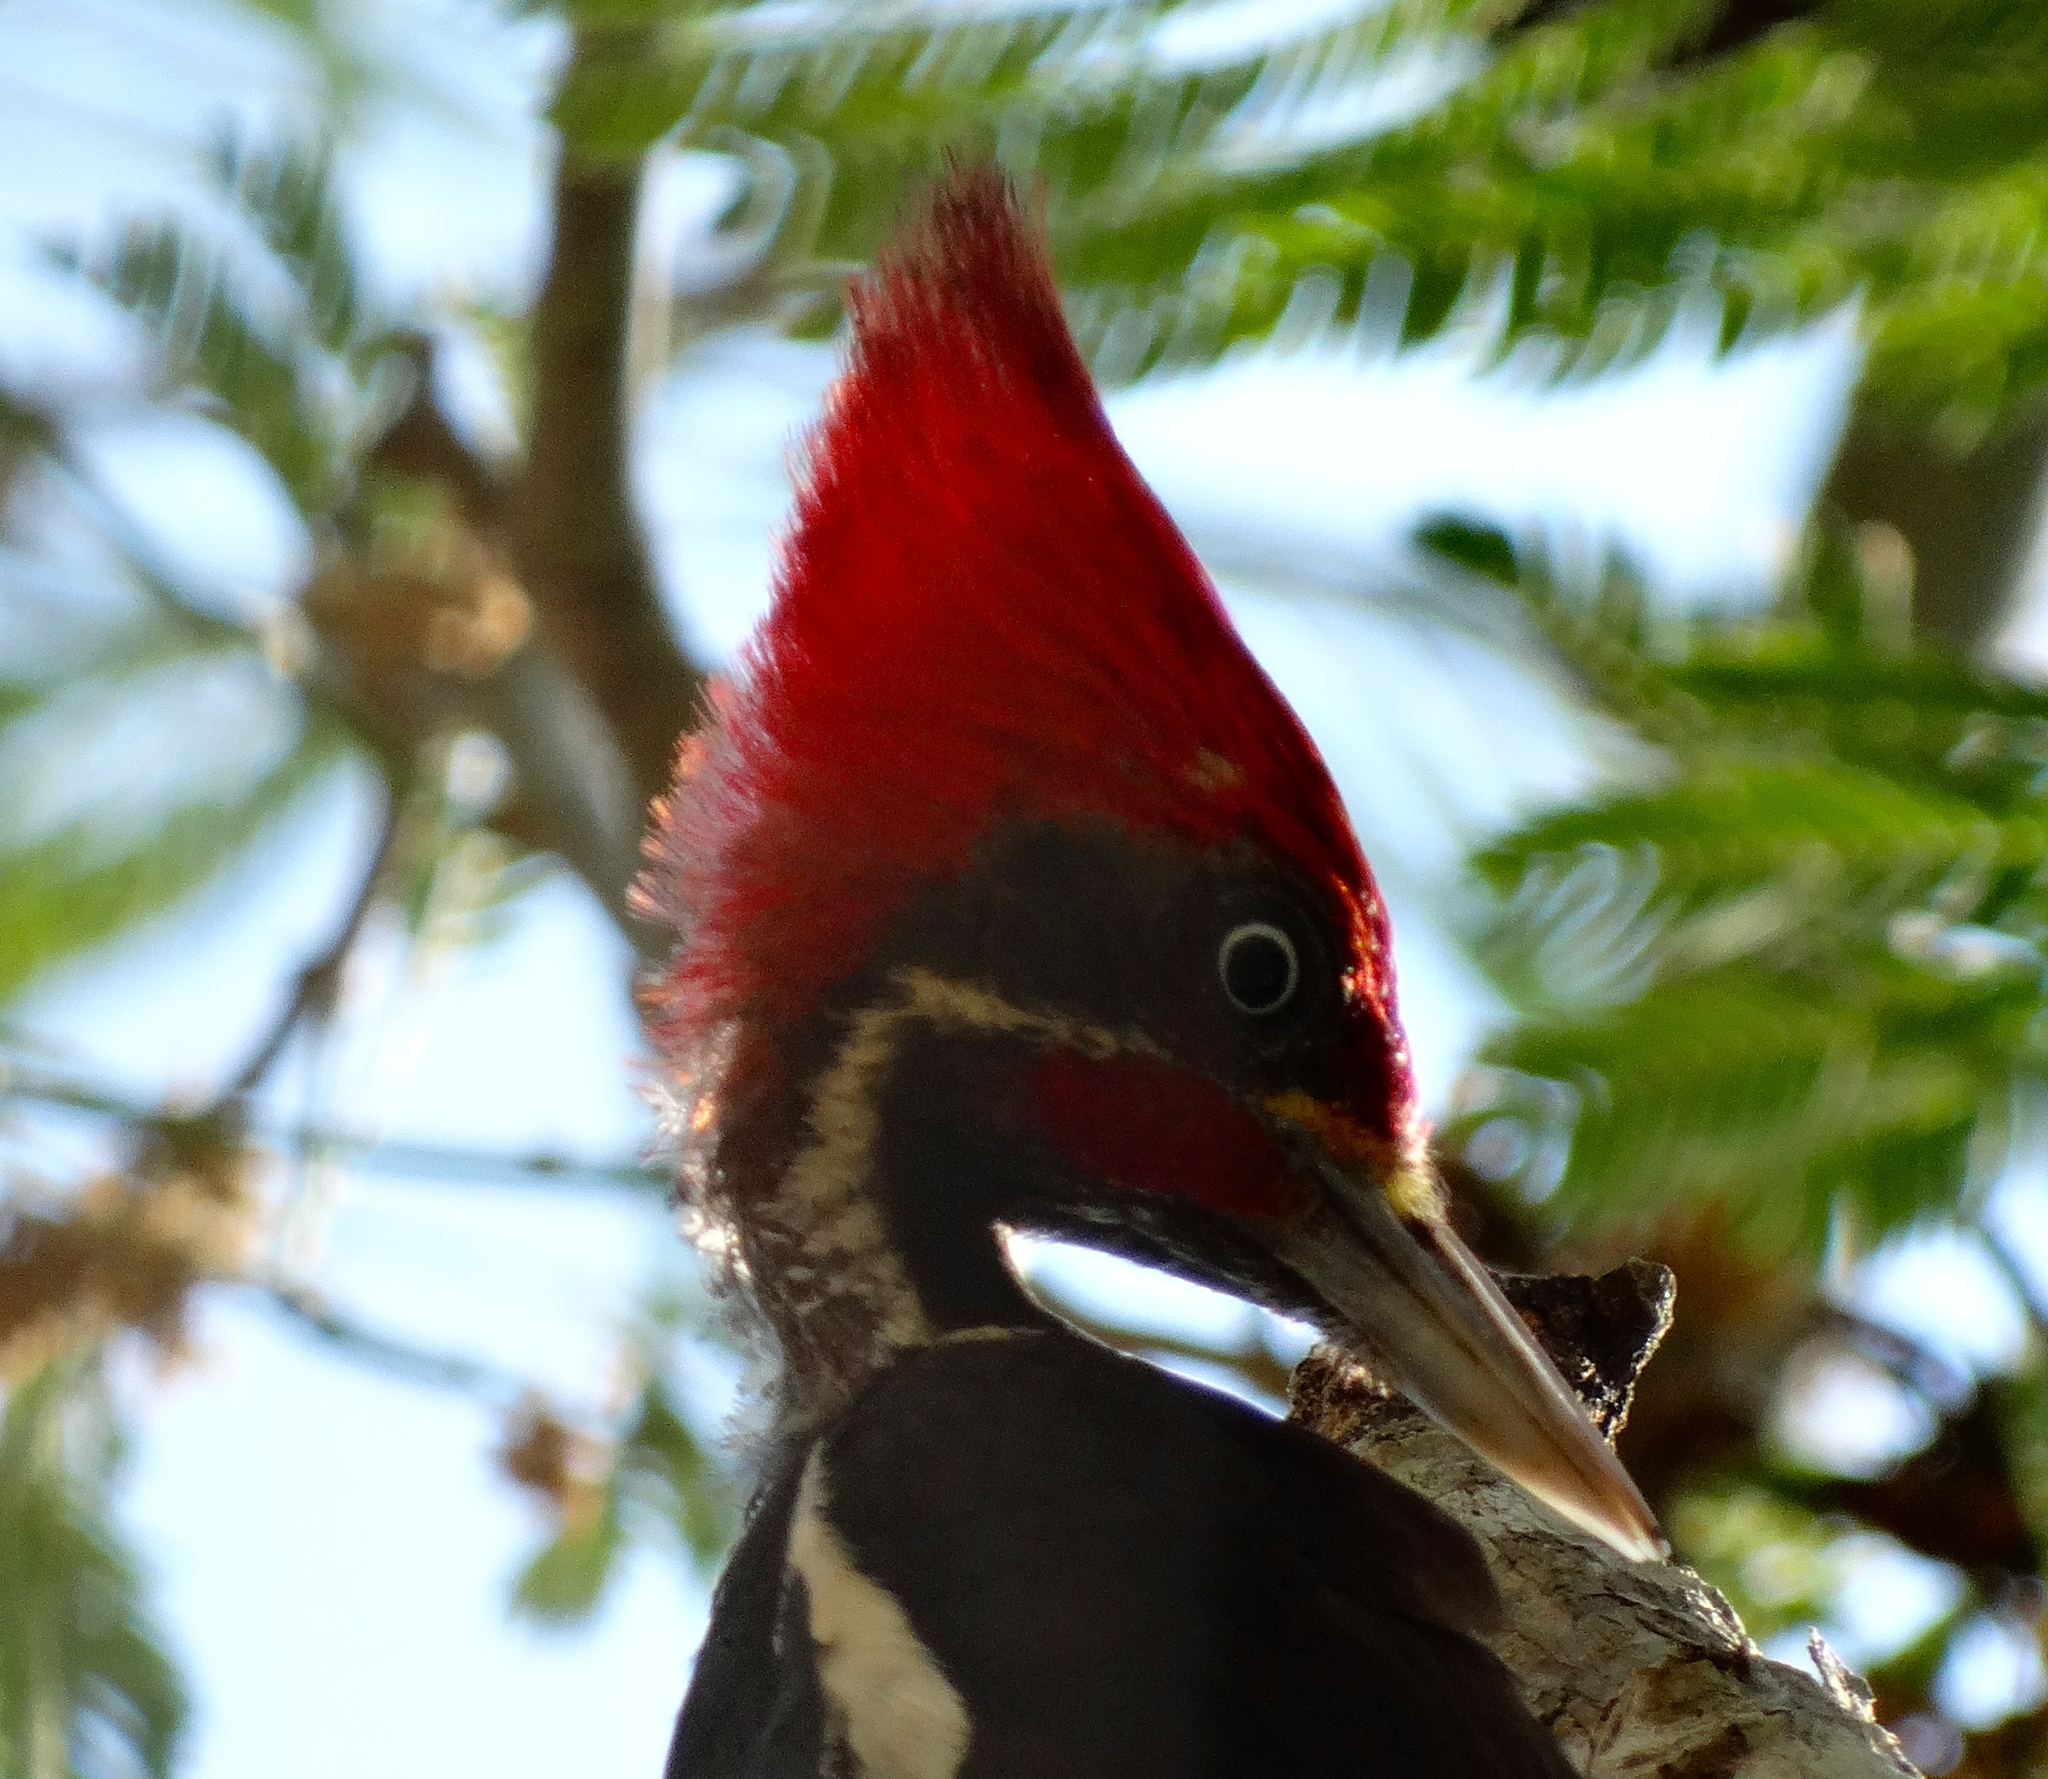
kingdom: Animalia
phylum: Chordata
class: Aves
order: Piciformes
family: Picidae
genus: Dryocopus
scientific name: Dryocopus lineatus
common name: Lineated woodpecker
